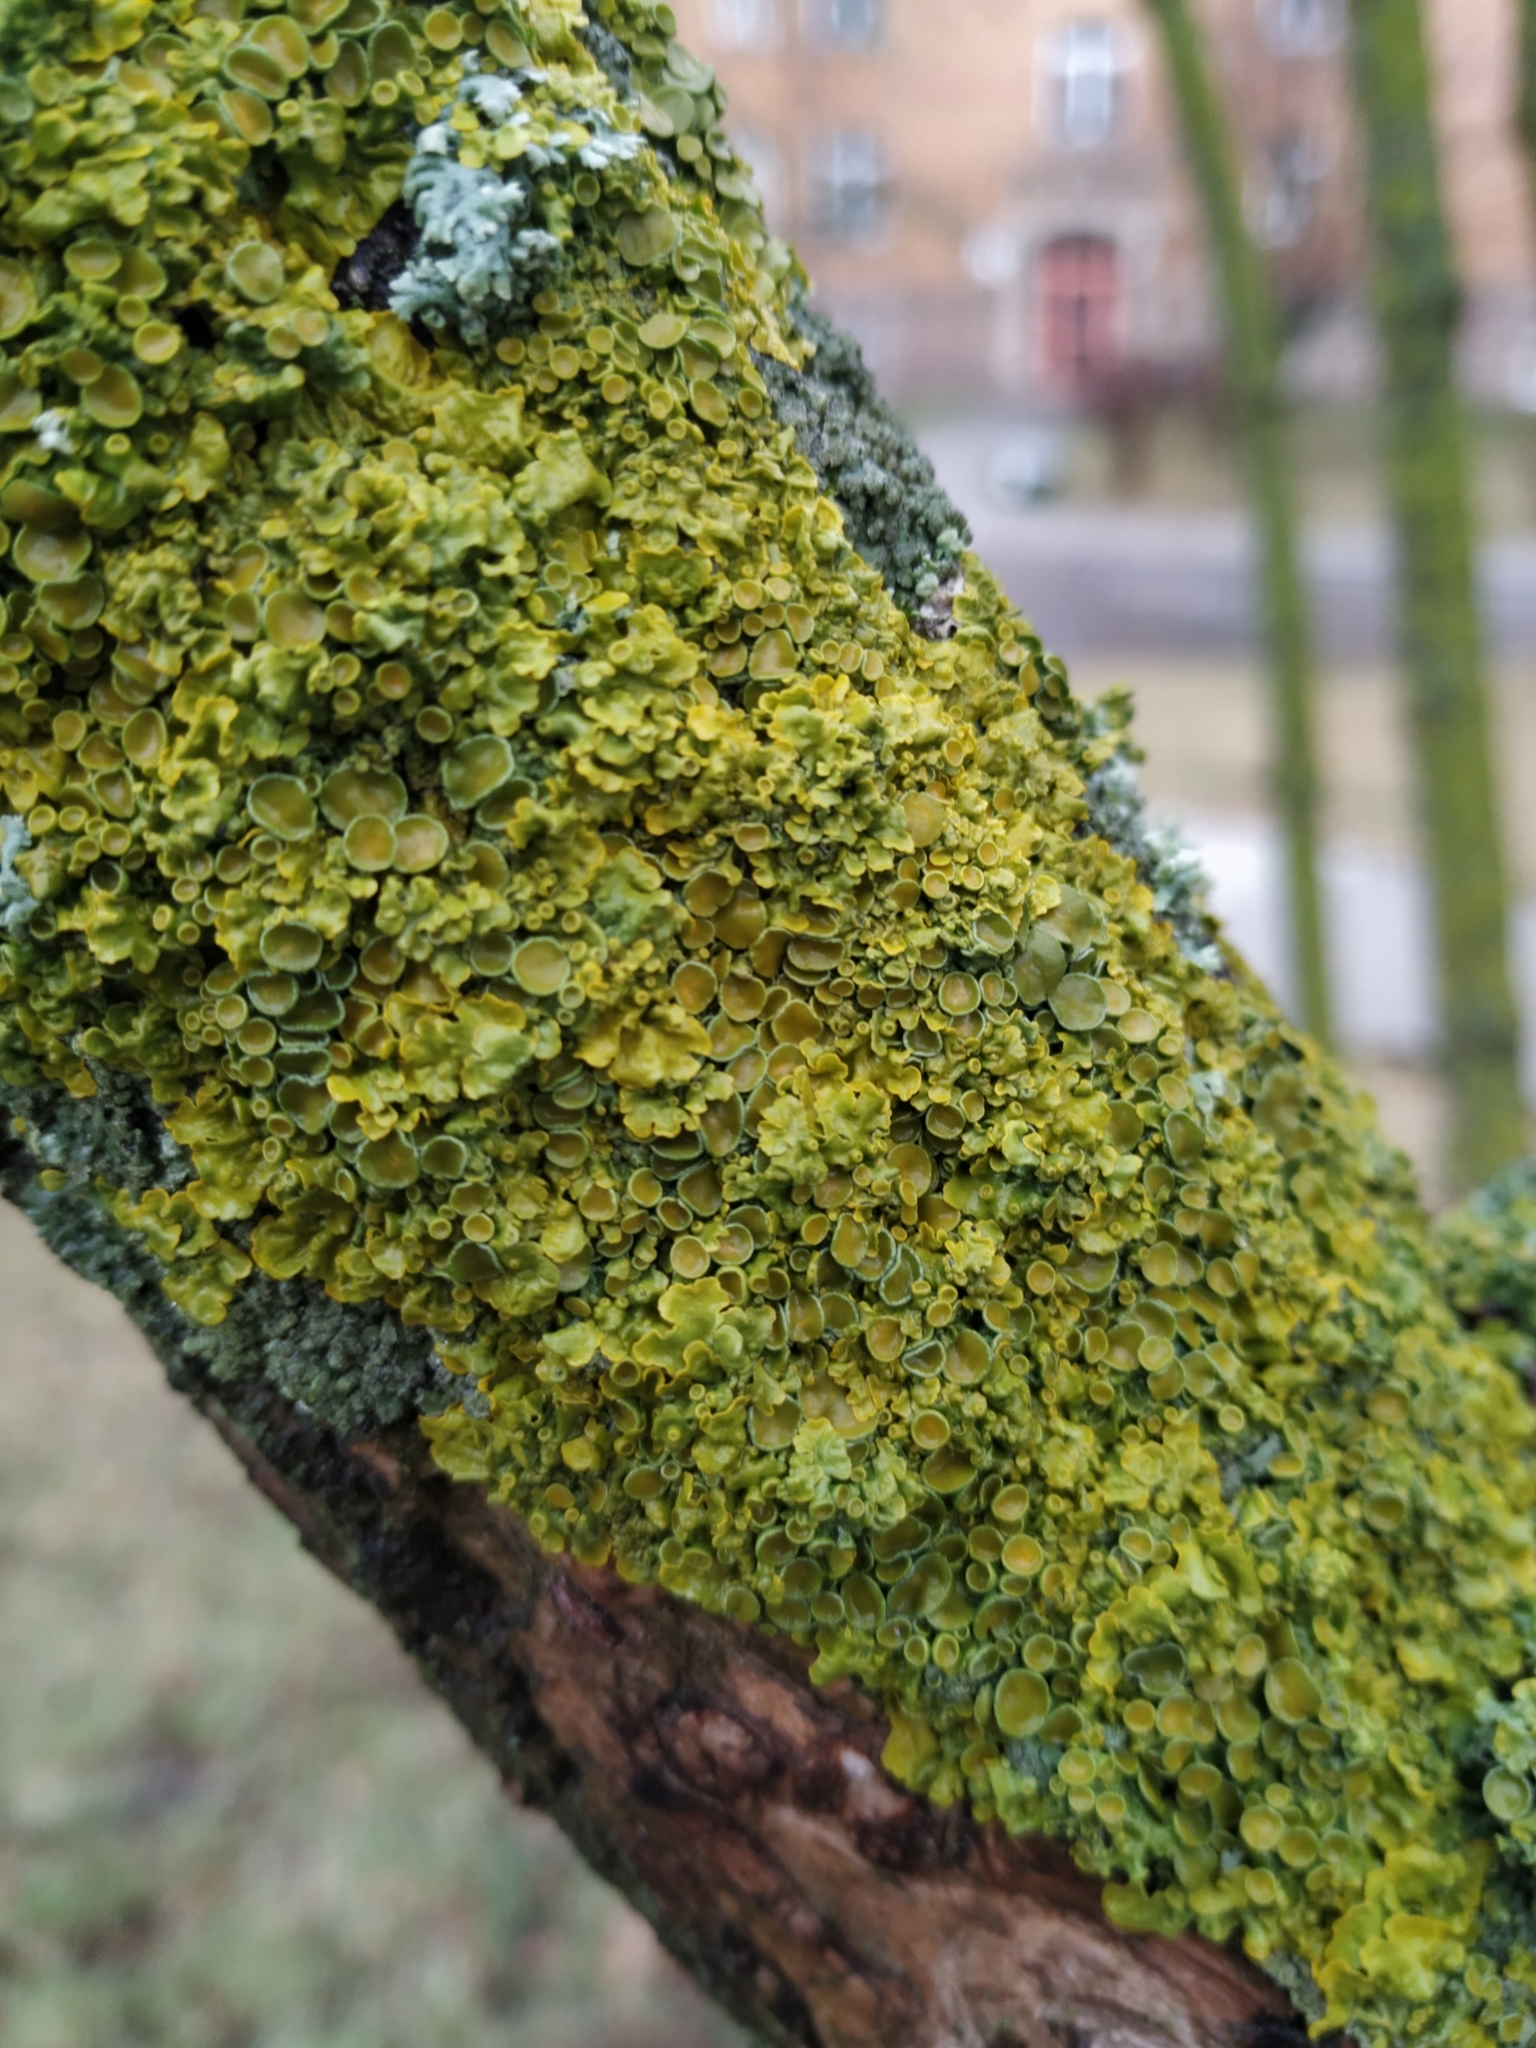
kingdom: Fungi
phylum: Ascomycota
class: Lecanoromycetes
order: Teloschistales
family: Teloschistaceae
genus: Xanthoria
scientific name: Xanthoria parietina
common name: Common orange lichen
